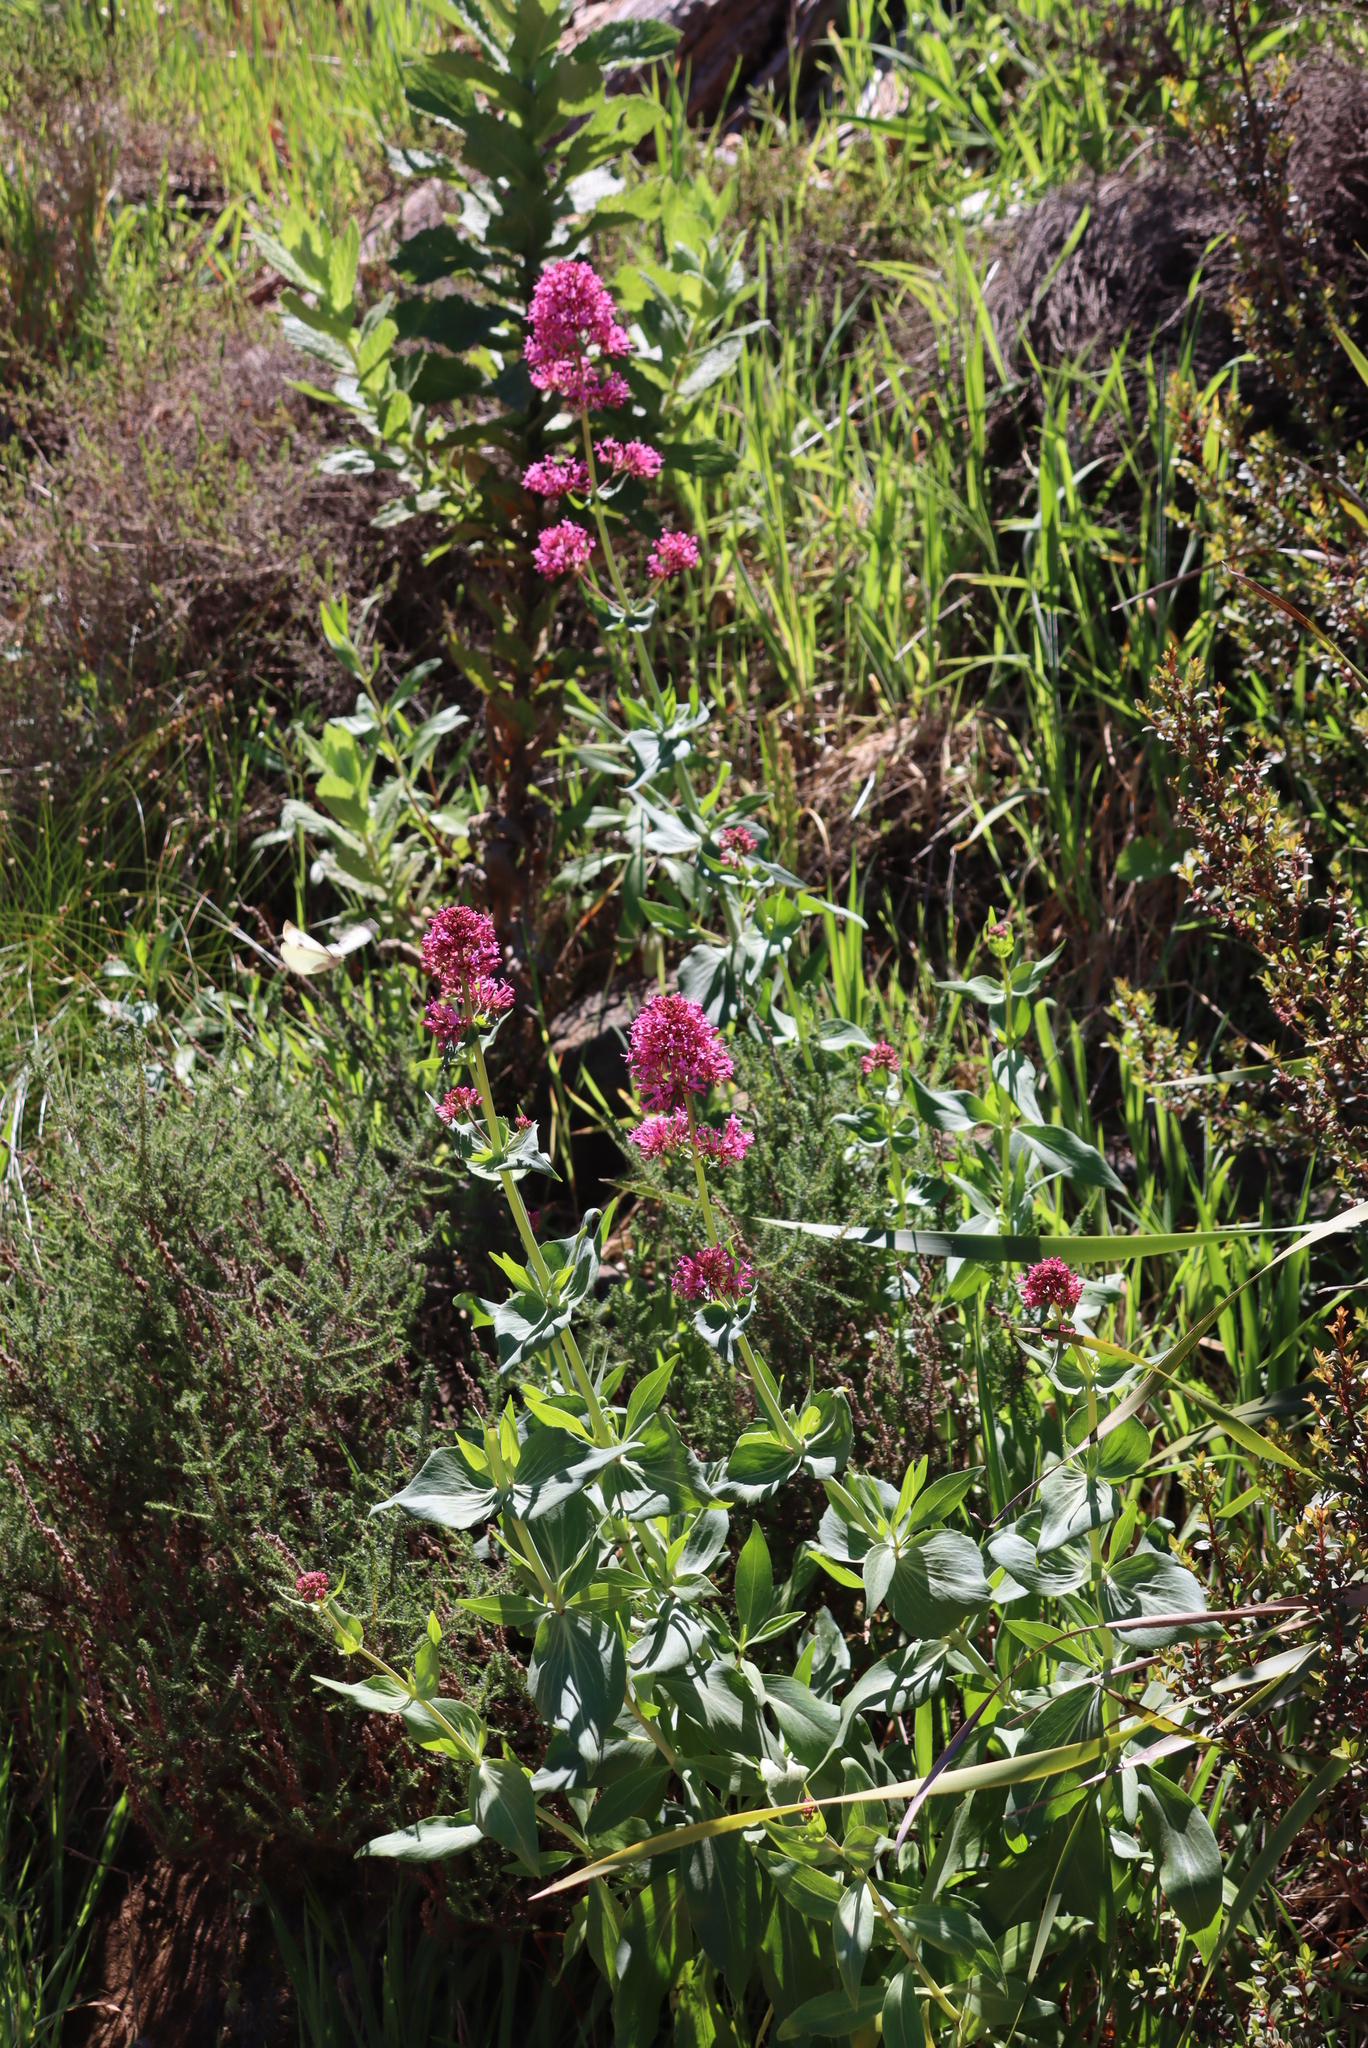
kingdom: Plantae
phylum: Tracheophyta
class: Magnoliopsida
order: Dipsacales
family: Caprifoliaceae
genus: Centranthus
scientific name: Centranthus ruber
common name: Red valerian
